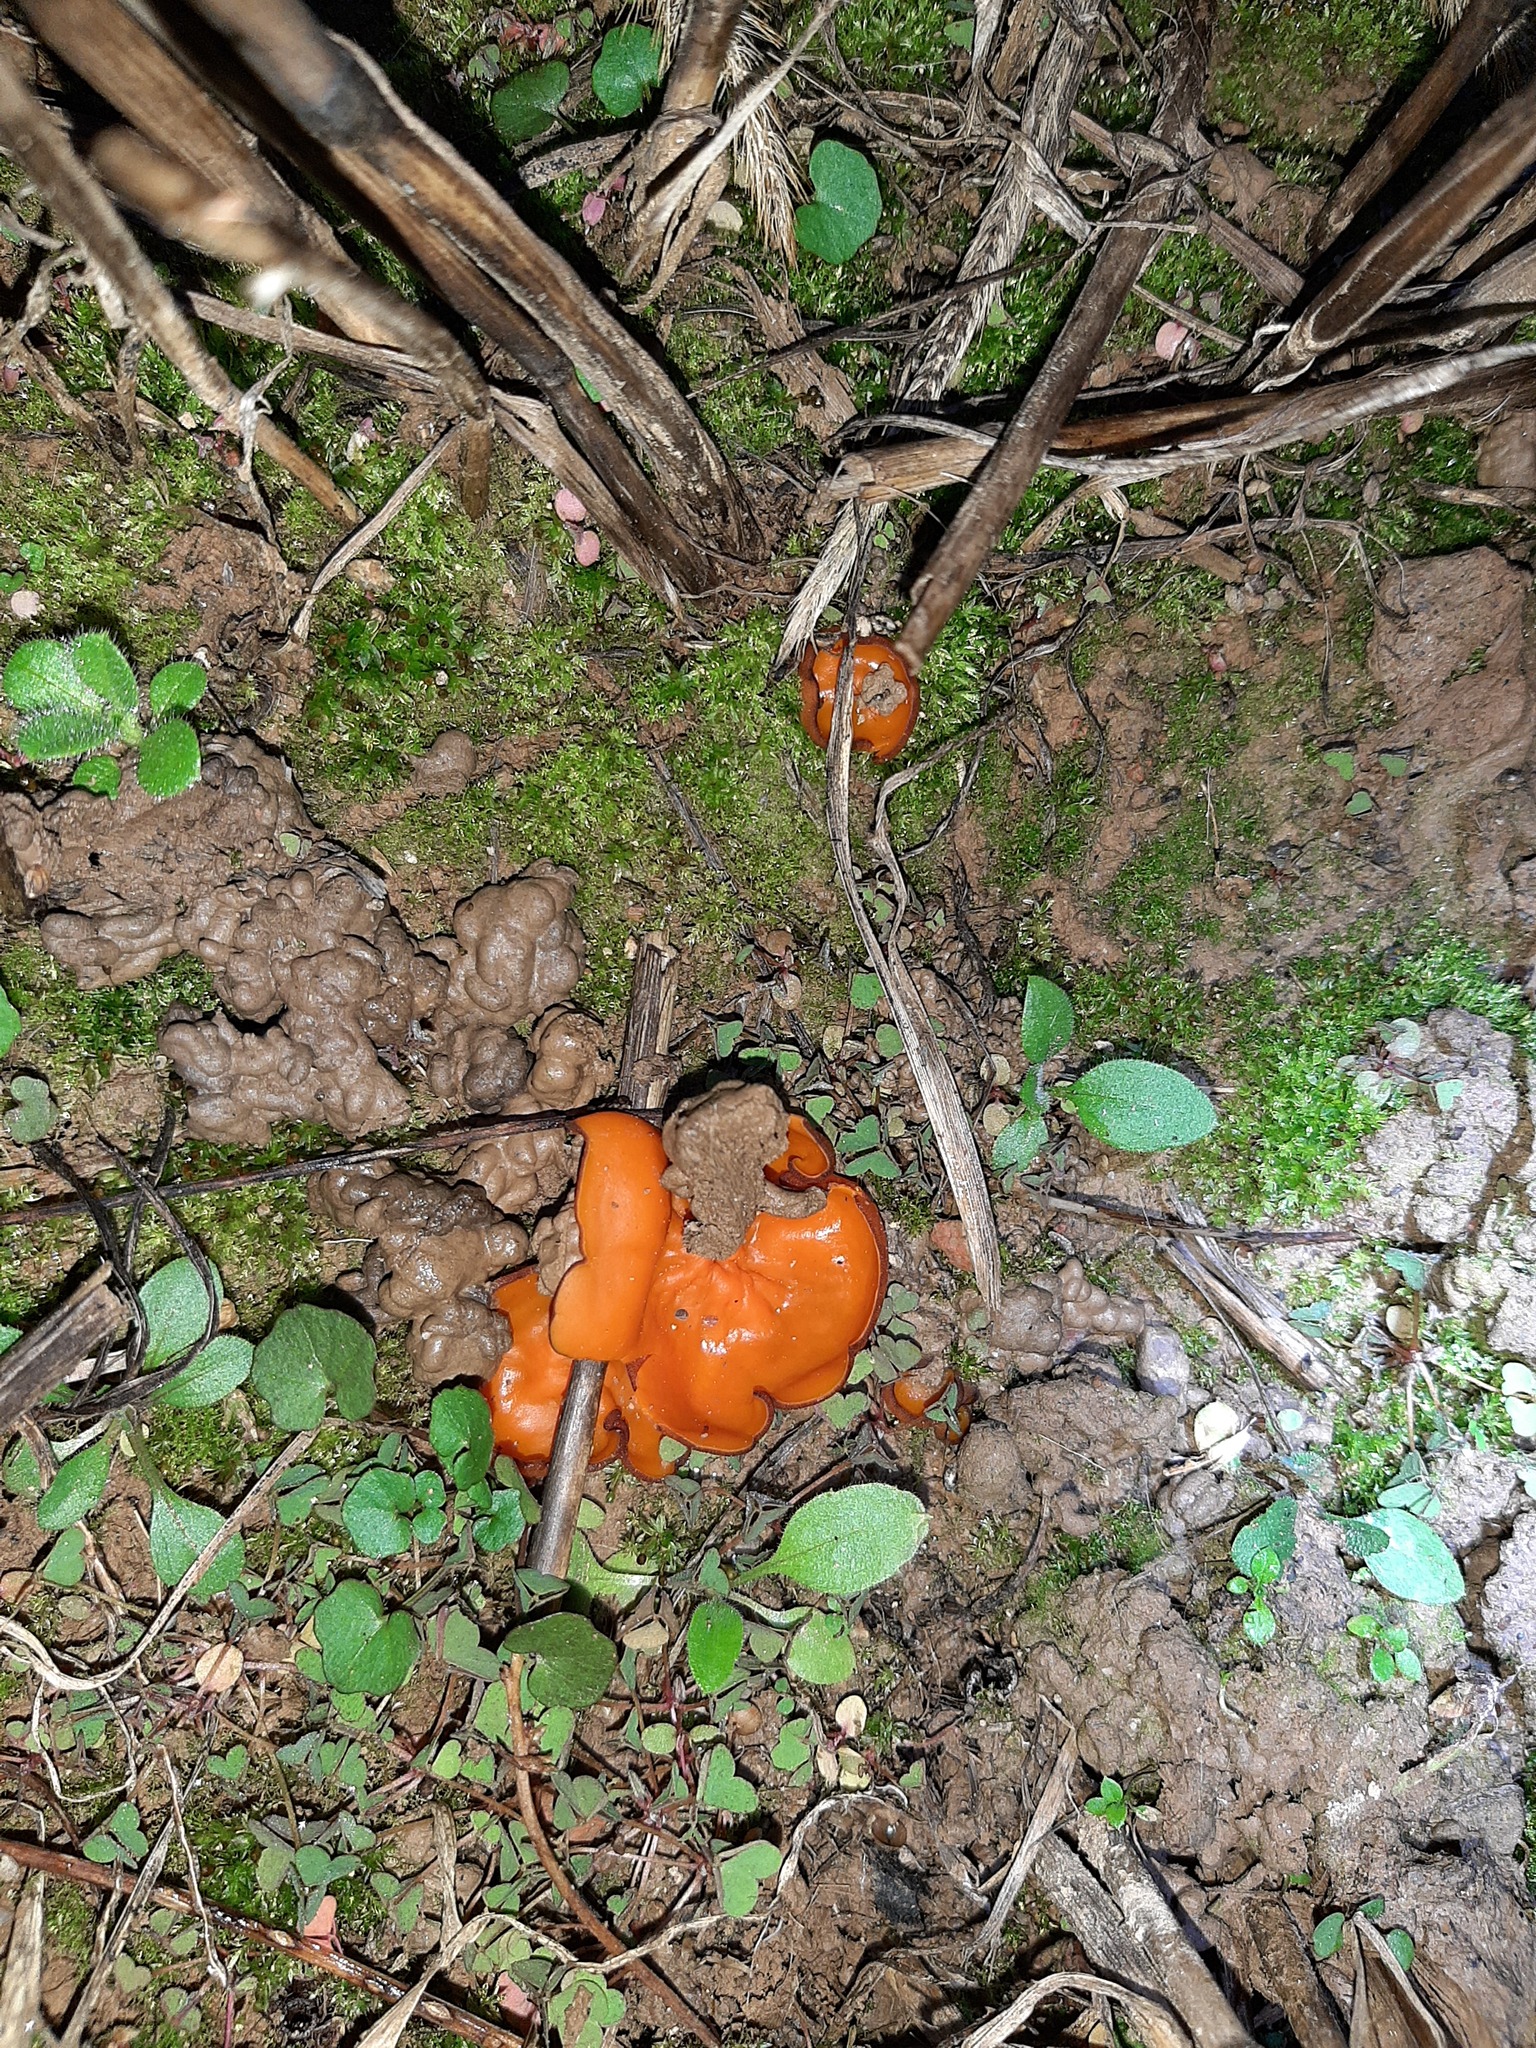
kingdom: Fungi
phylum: Ascomycota
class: Pezizomycetes
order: Pezizales
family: Pyronemataceae
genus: Aleuria
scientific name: Aleuria aurantia
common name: Orange peel fungus
